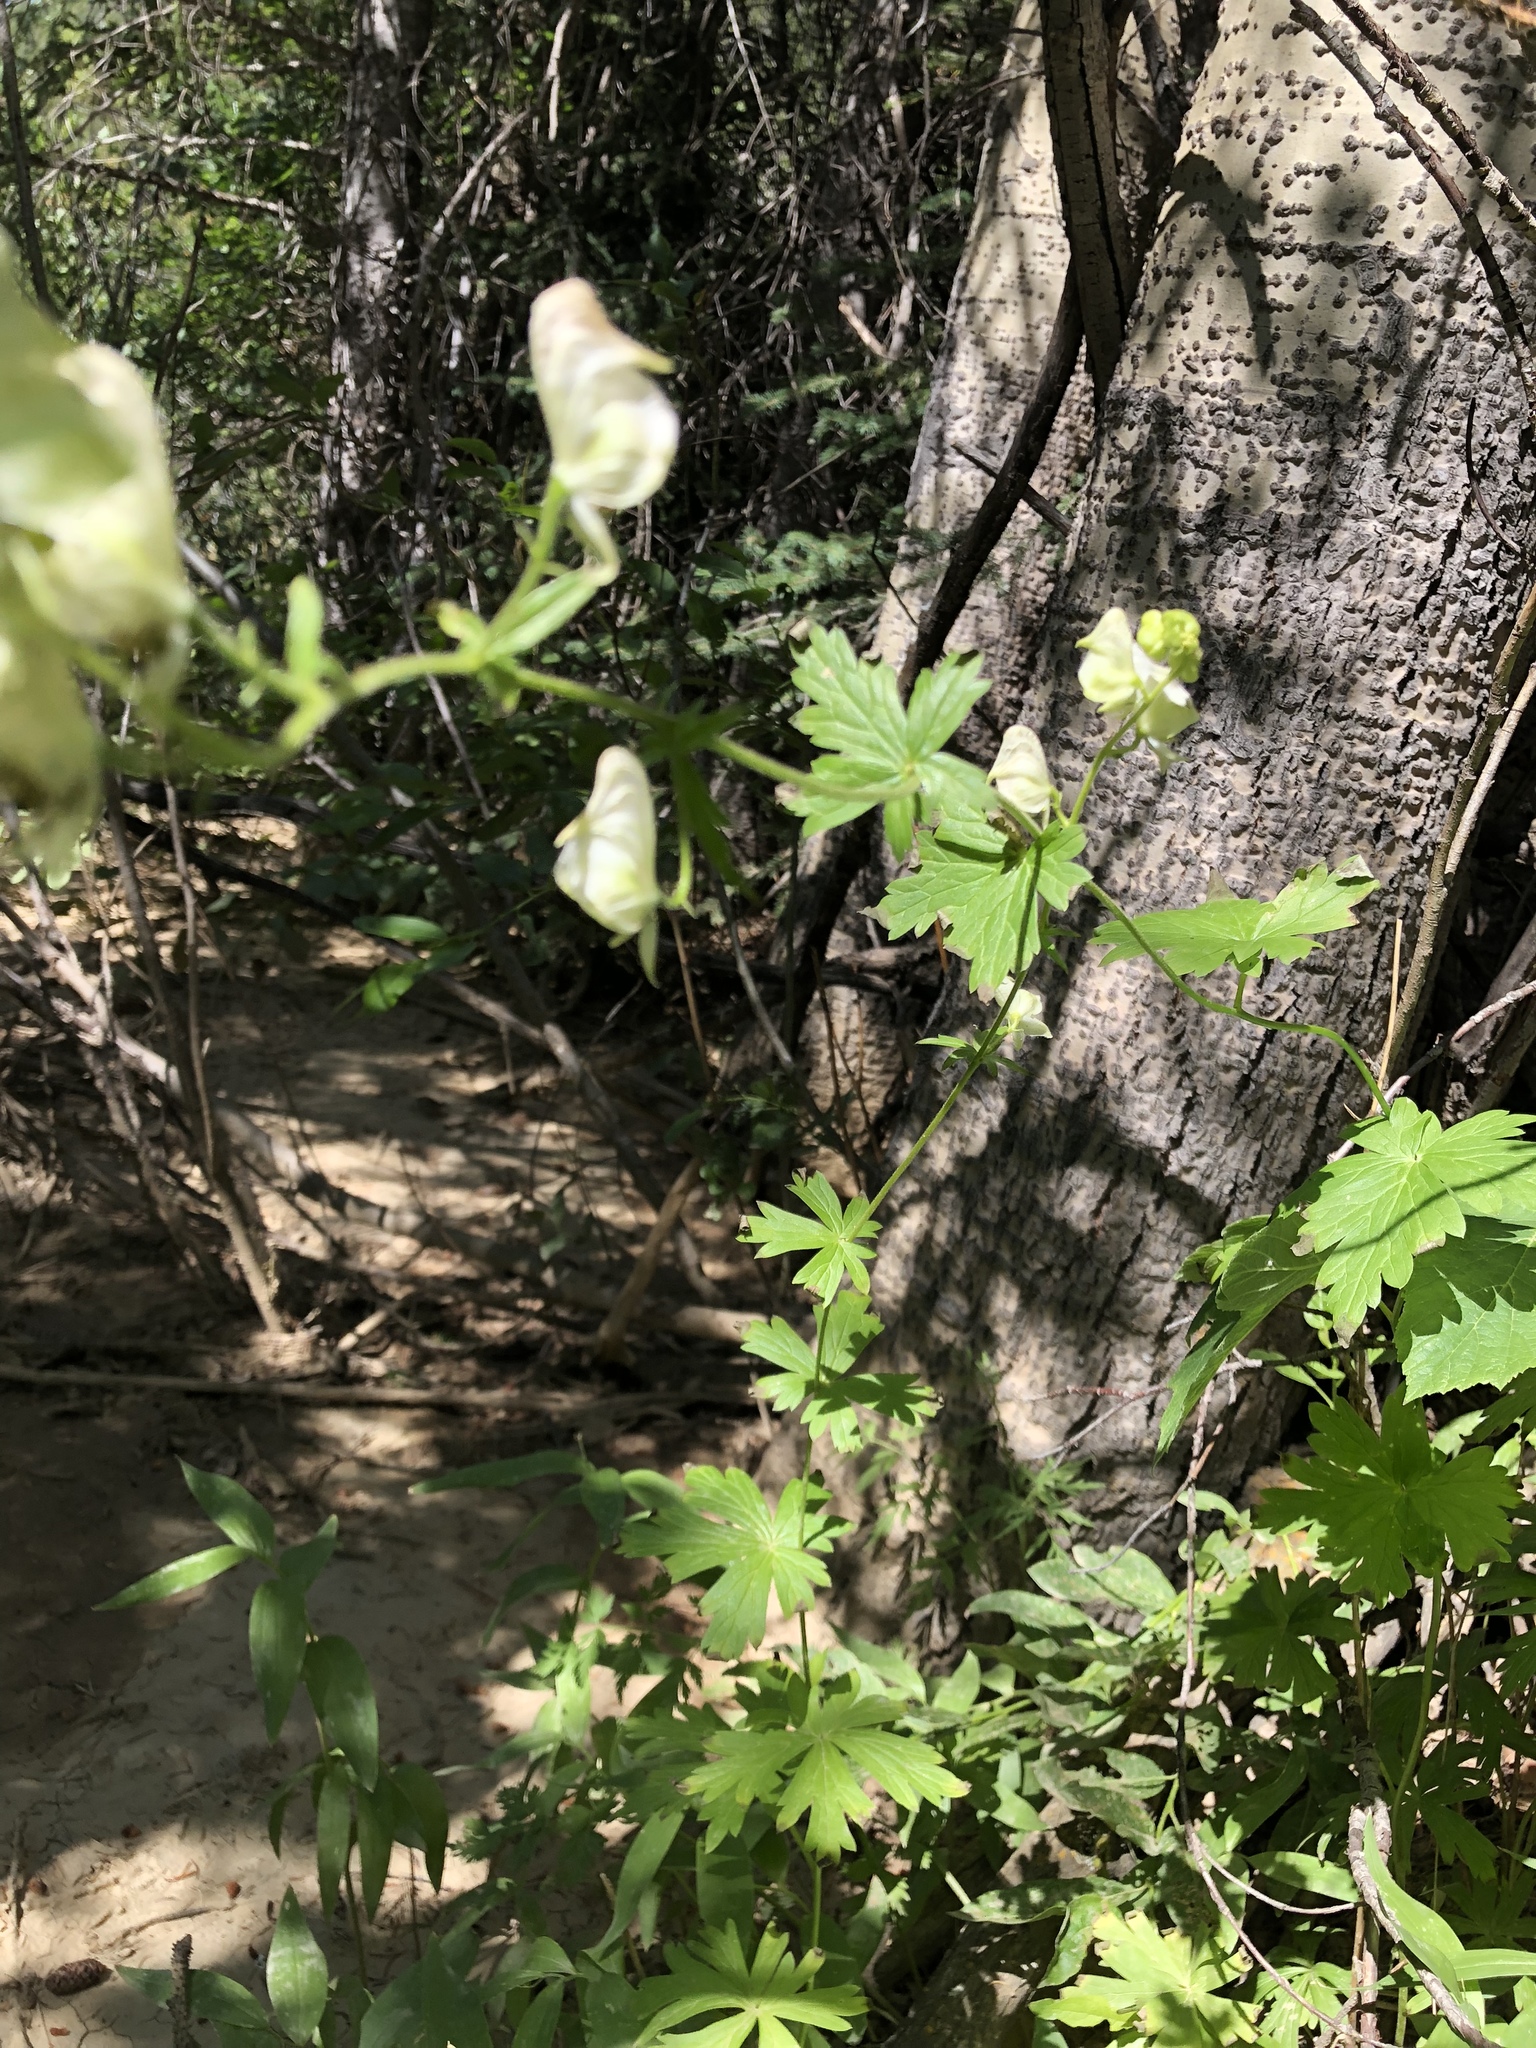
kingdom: Plantae
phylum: Tracheophyta
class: Magnoliopsida
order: Ranunculales
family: Ranunculaceae
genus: Aconitum
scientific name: Aconitum columbianum
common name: Columbia aconite
